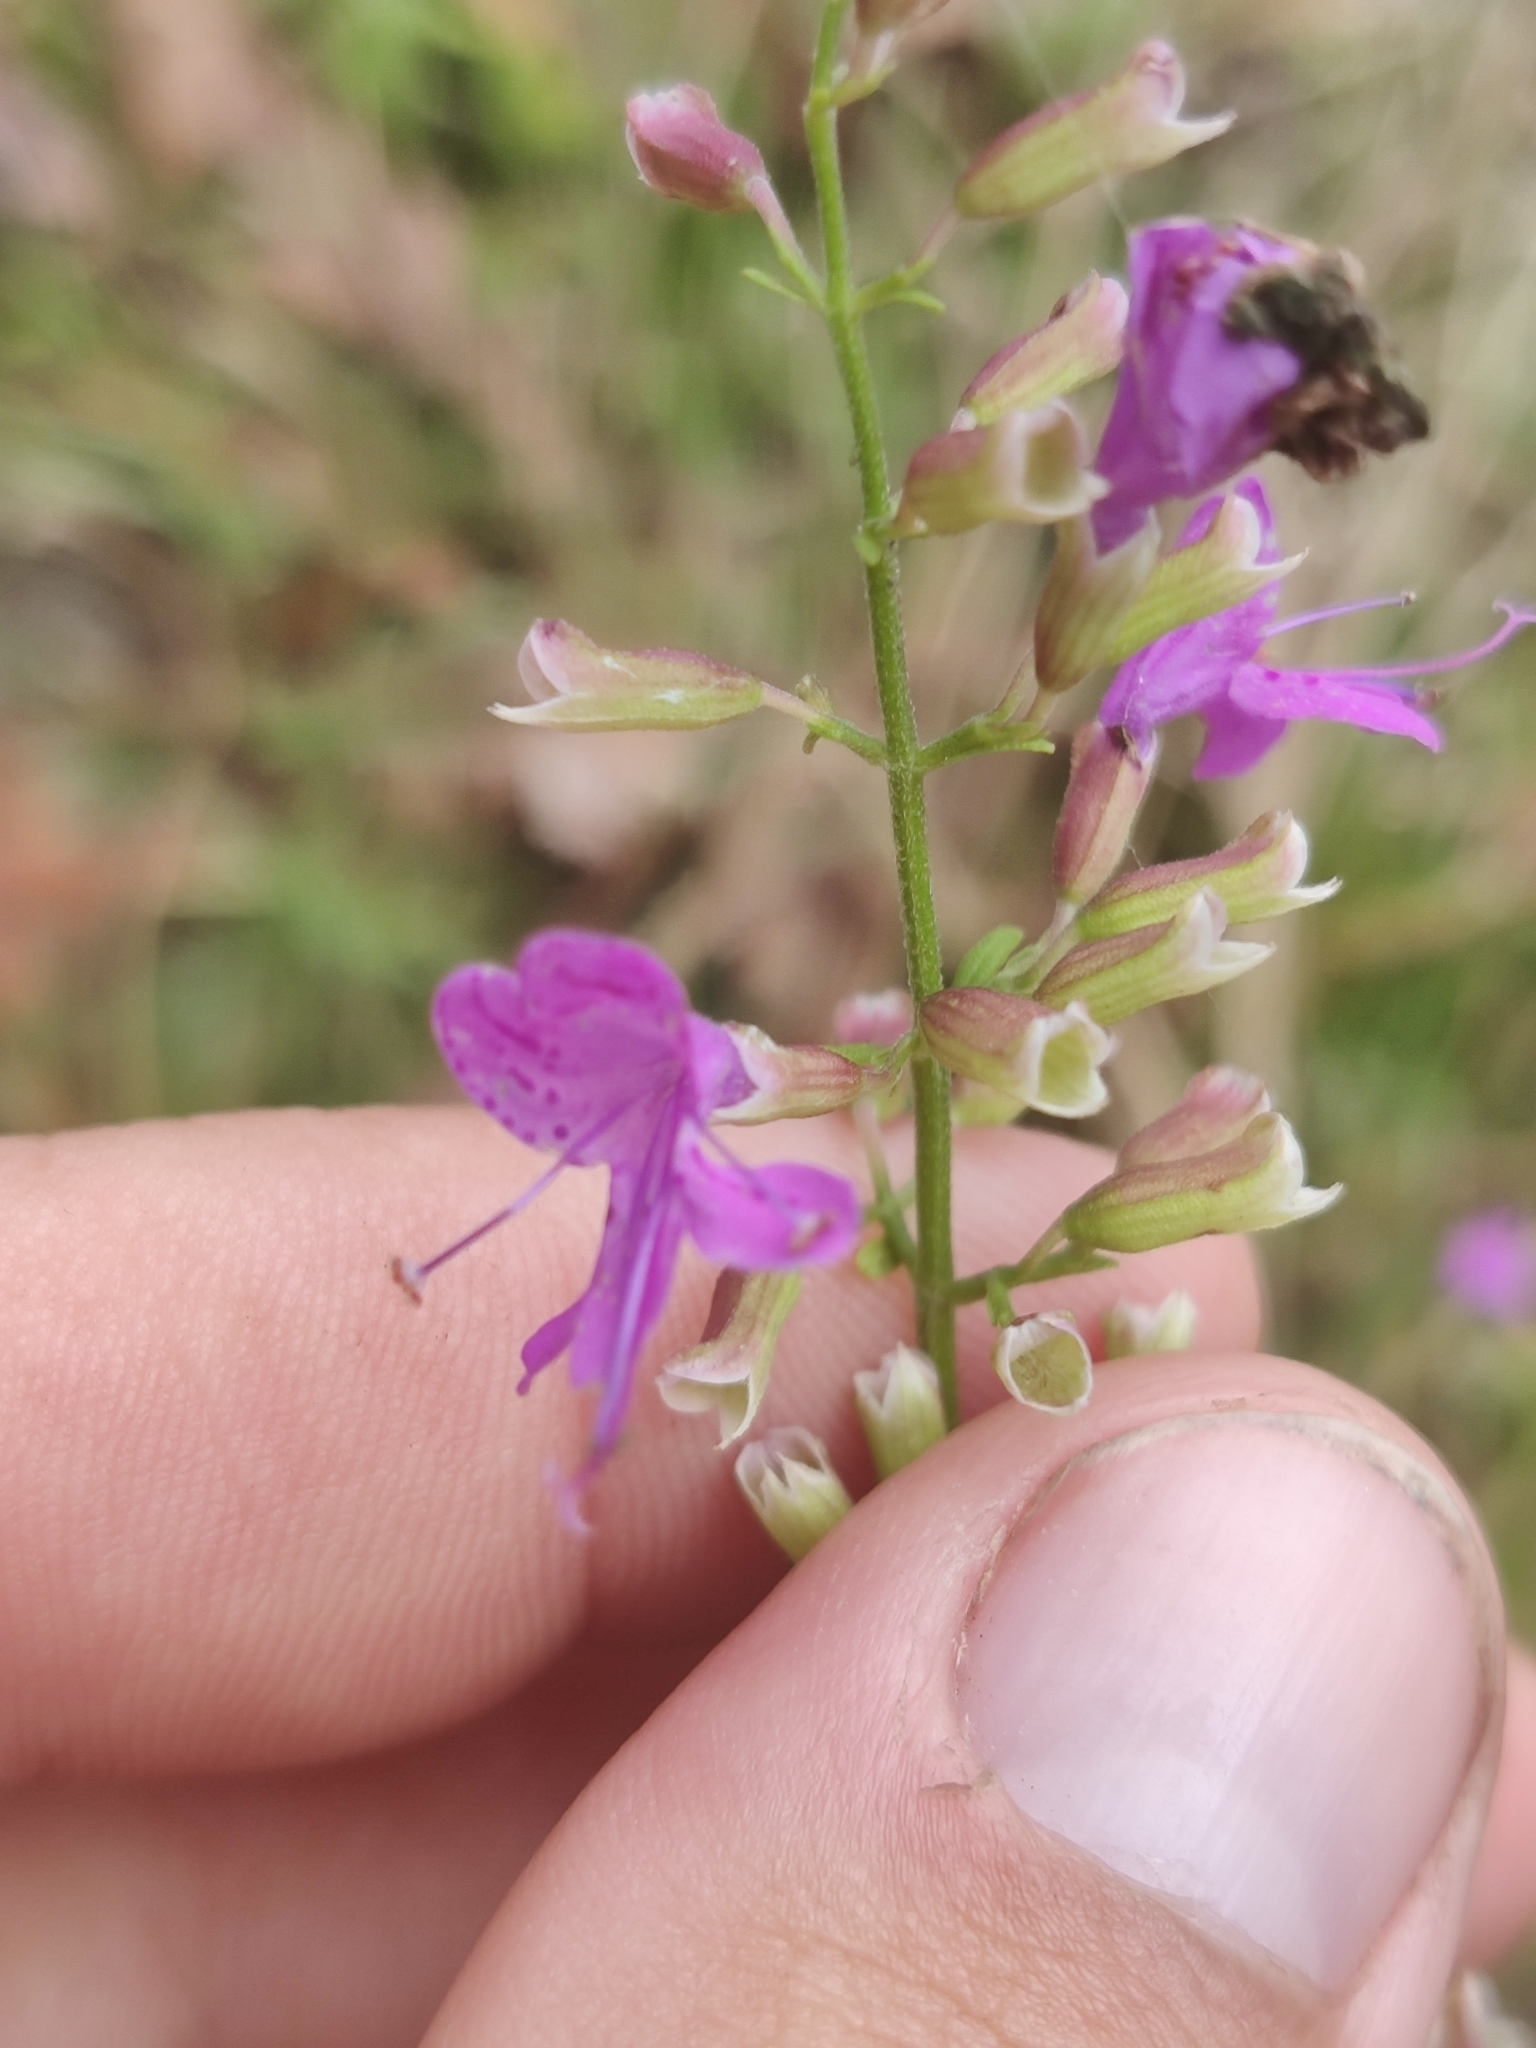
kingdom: Plantae
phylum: Tracheophyta
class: Magnoliopsida
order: Lamiales
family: Lamiaceae
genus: Dicerandra
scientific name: Dicerandra linearifolia
